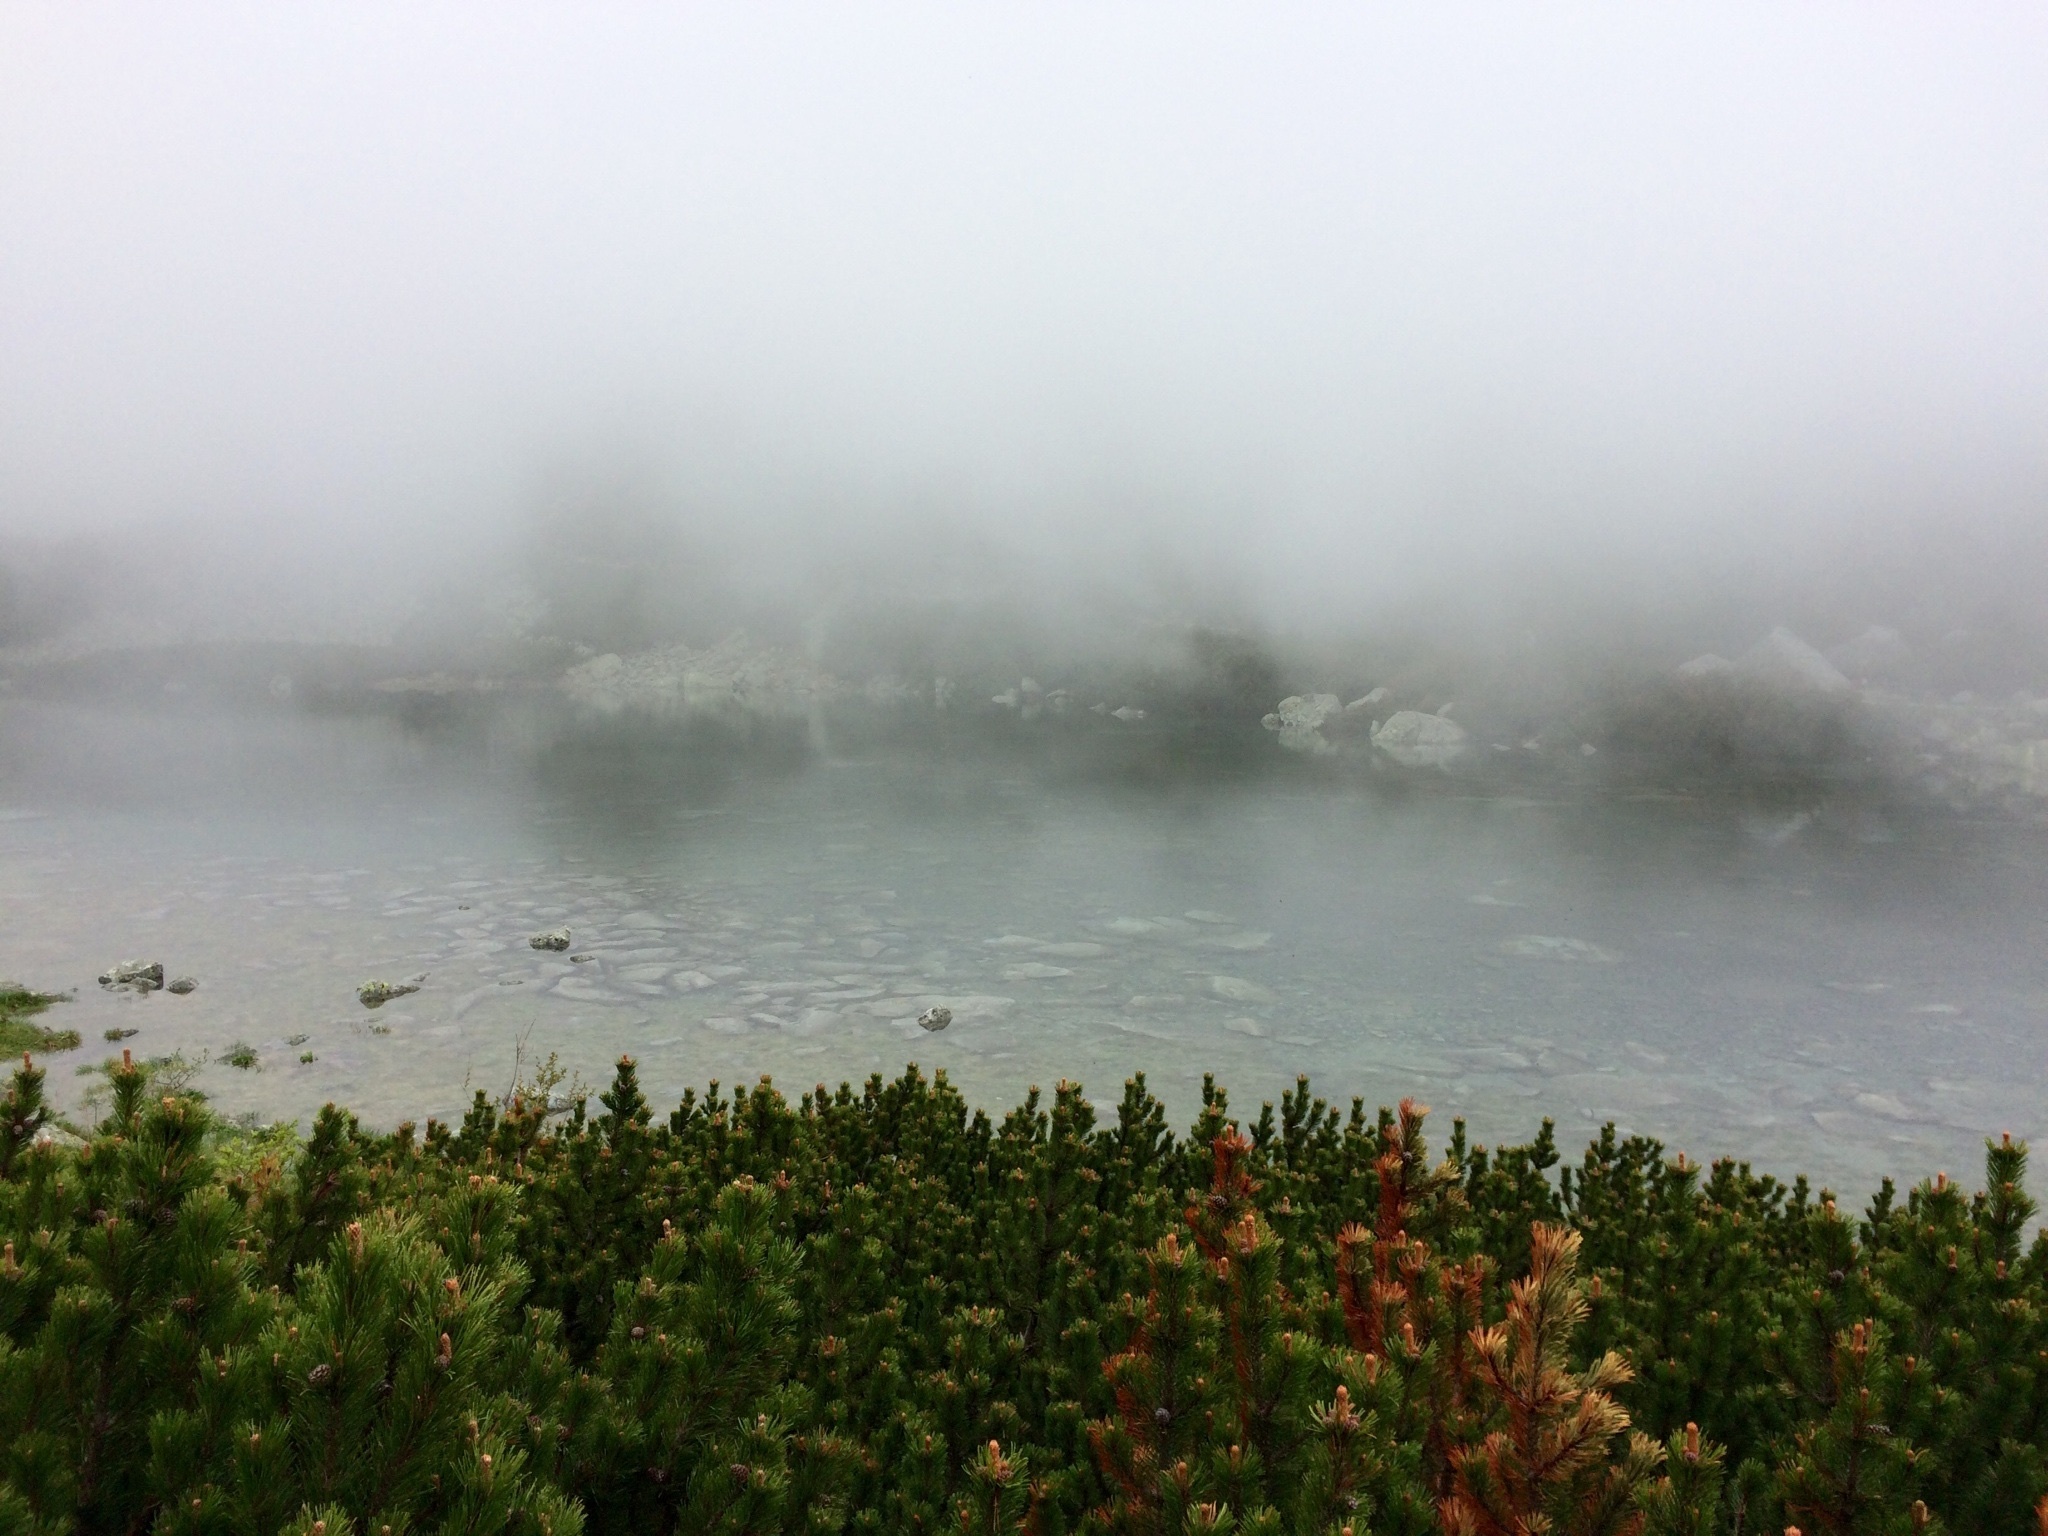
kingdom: Plantae
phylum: Tracheophyta
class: Pinopsida
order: Pinales
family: Pinaceae
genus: Pinus
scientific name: Pinus mugo
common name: Mugo pine
